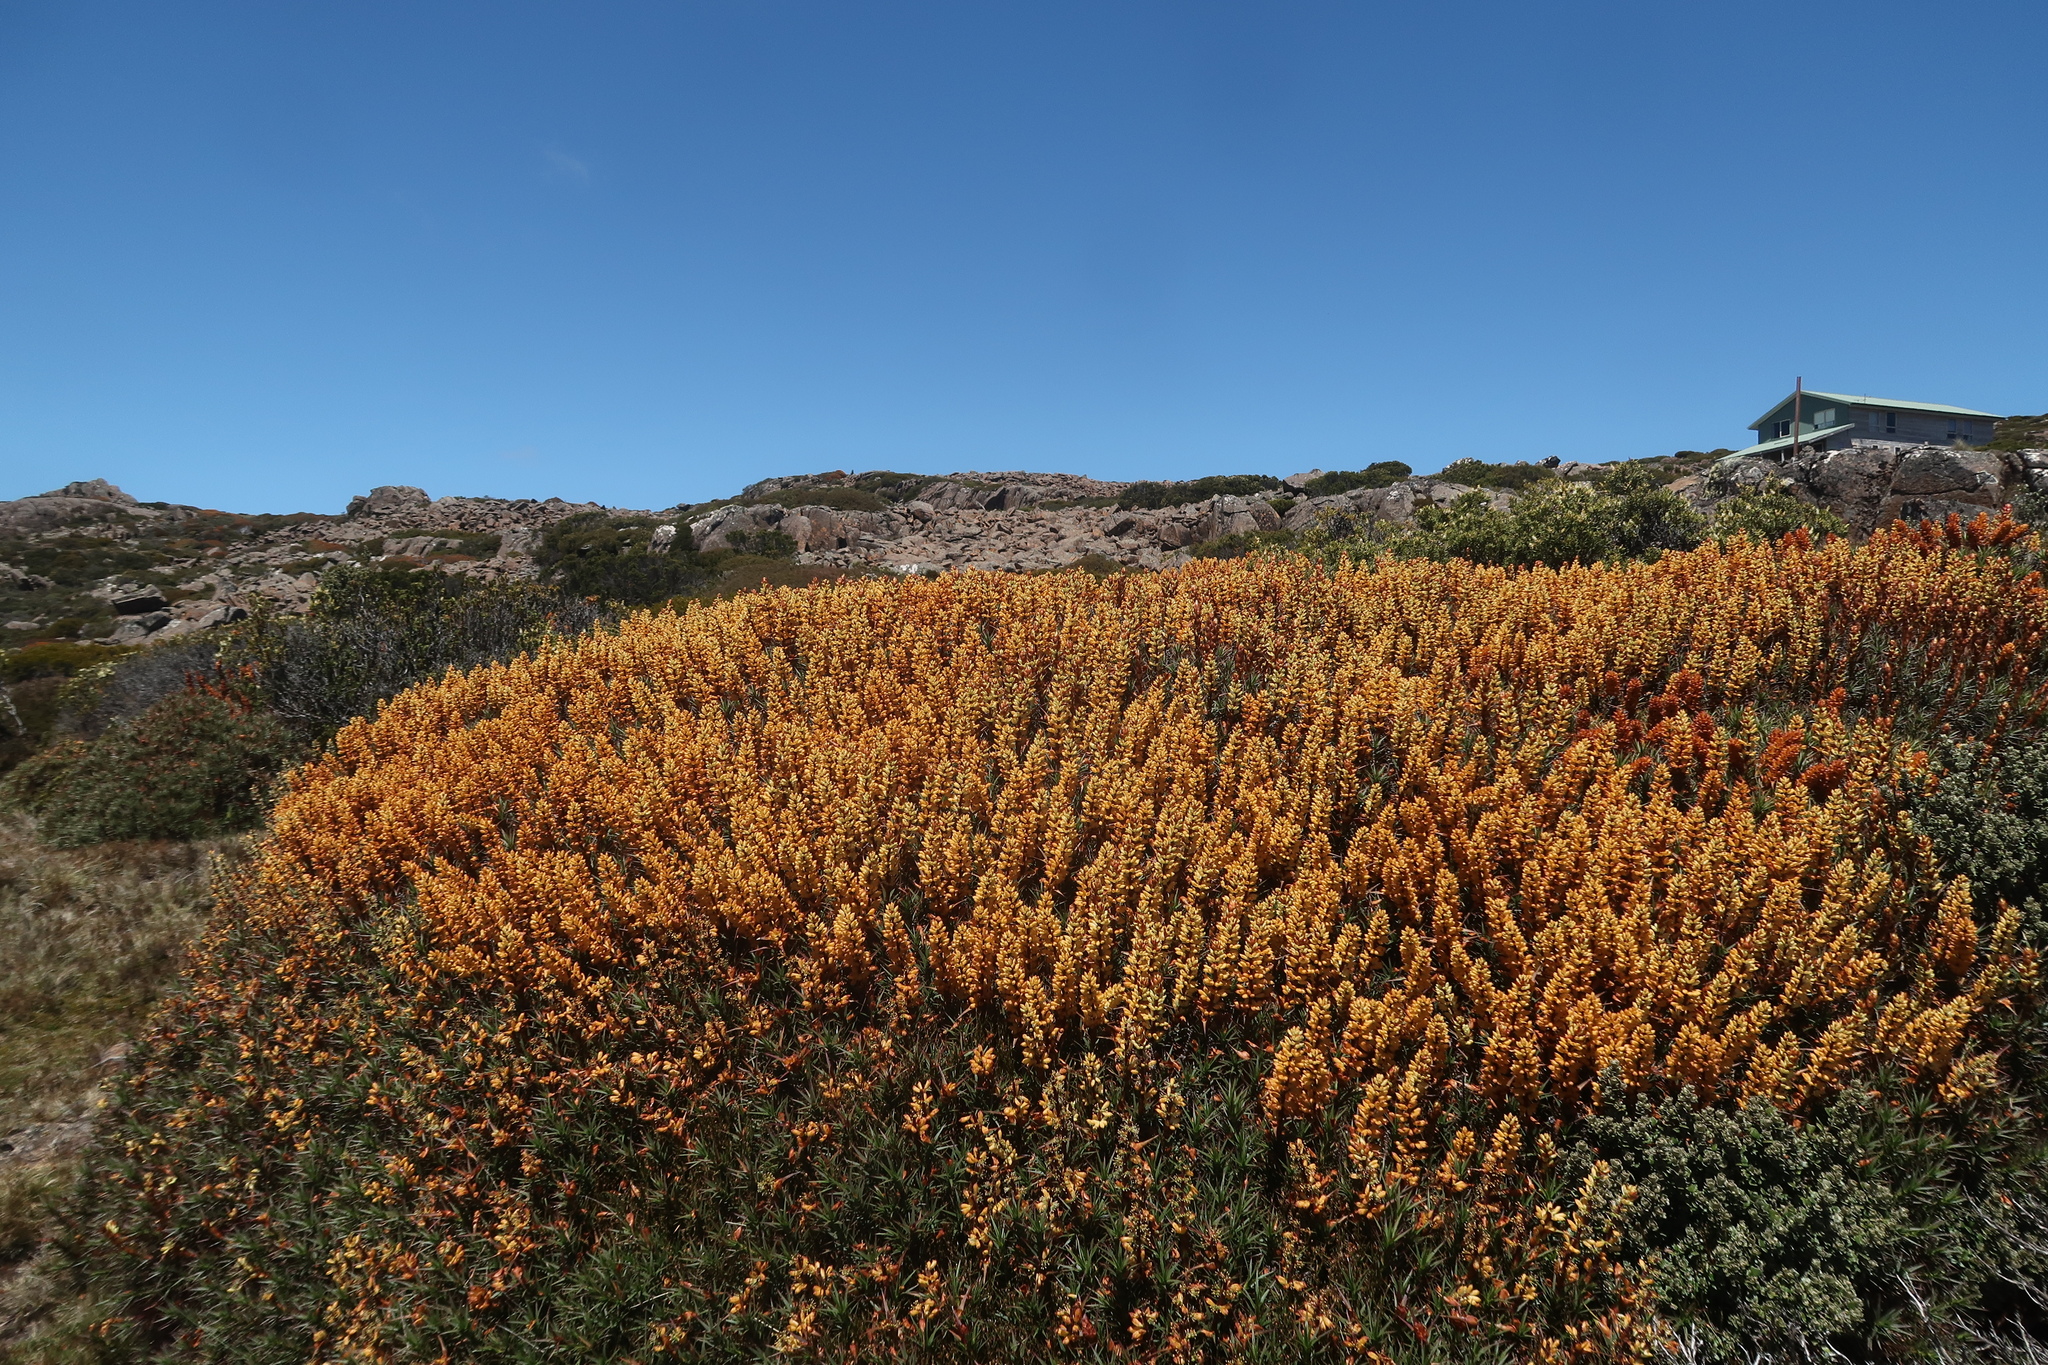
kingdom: Plantae
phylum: Tracheophyta
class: Magnoliopsida
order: Ericales
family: Ericaceae
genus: Dracophyllum
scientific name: Dracophyllum persistentifolium
